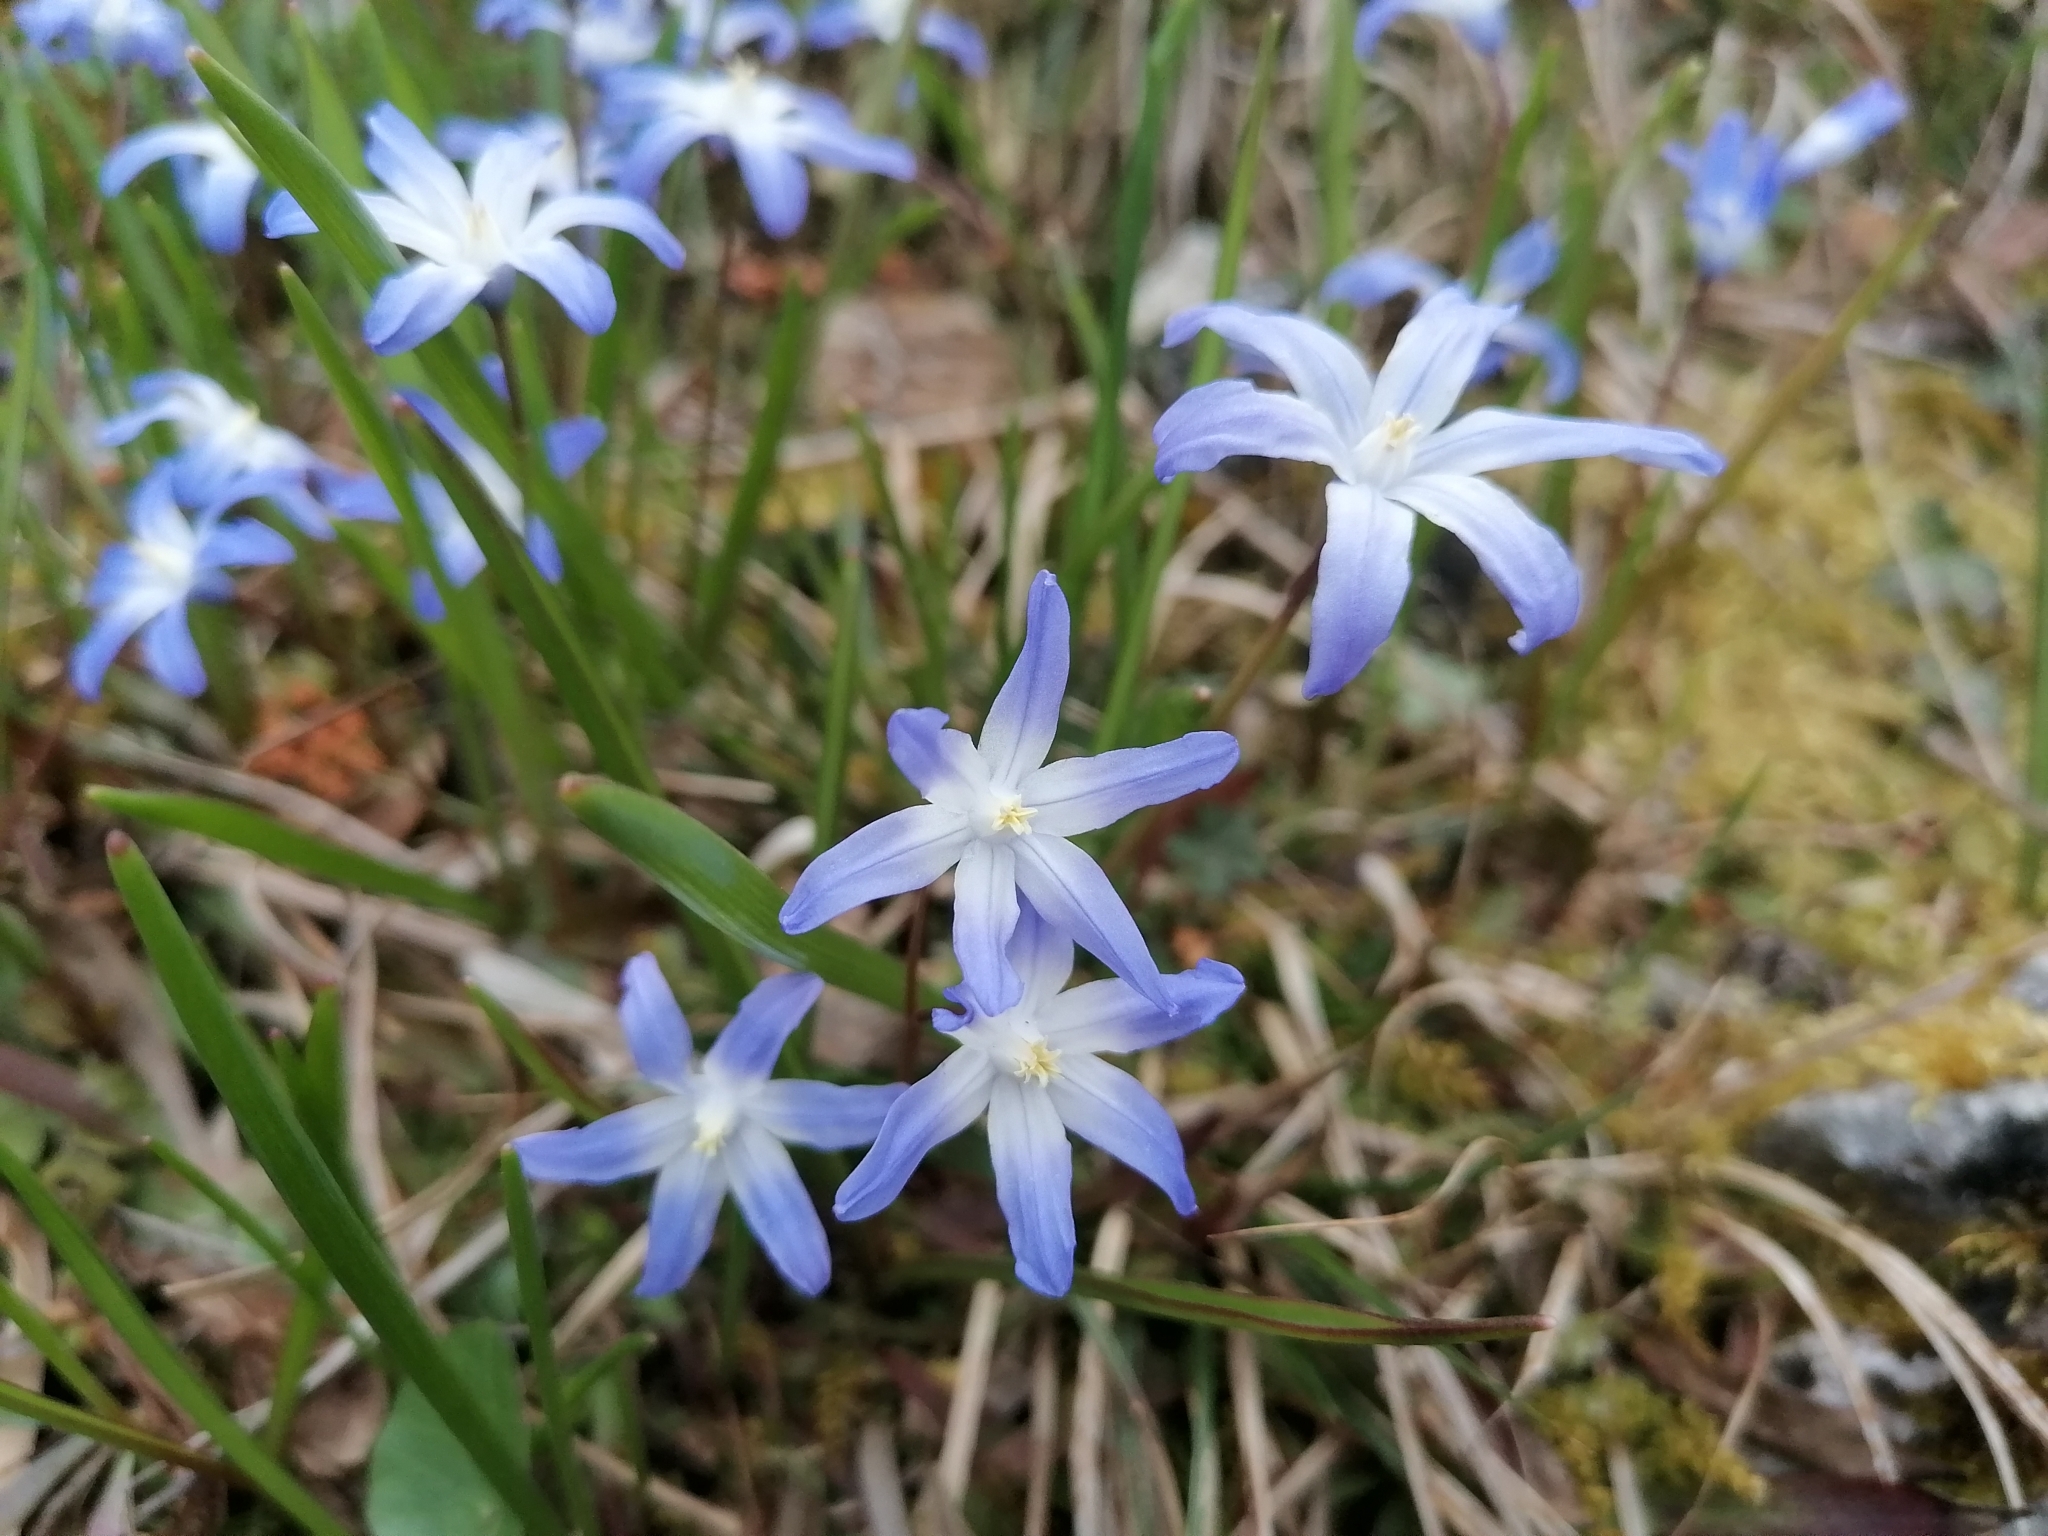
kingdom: Plantae
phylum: Tracheophyta
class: Liliopsida
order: Asparagales
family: Asparagaceae
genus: Scilla
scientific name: Scilla luciliae
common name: Boissier's glory-of-the-snow
